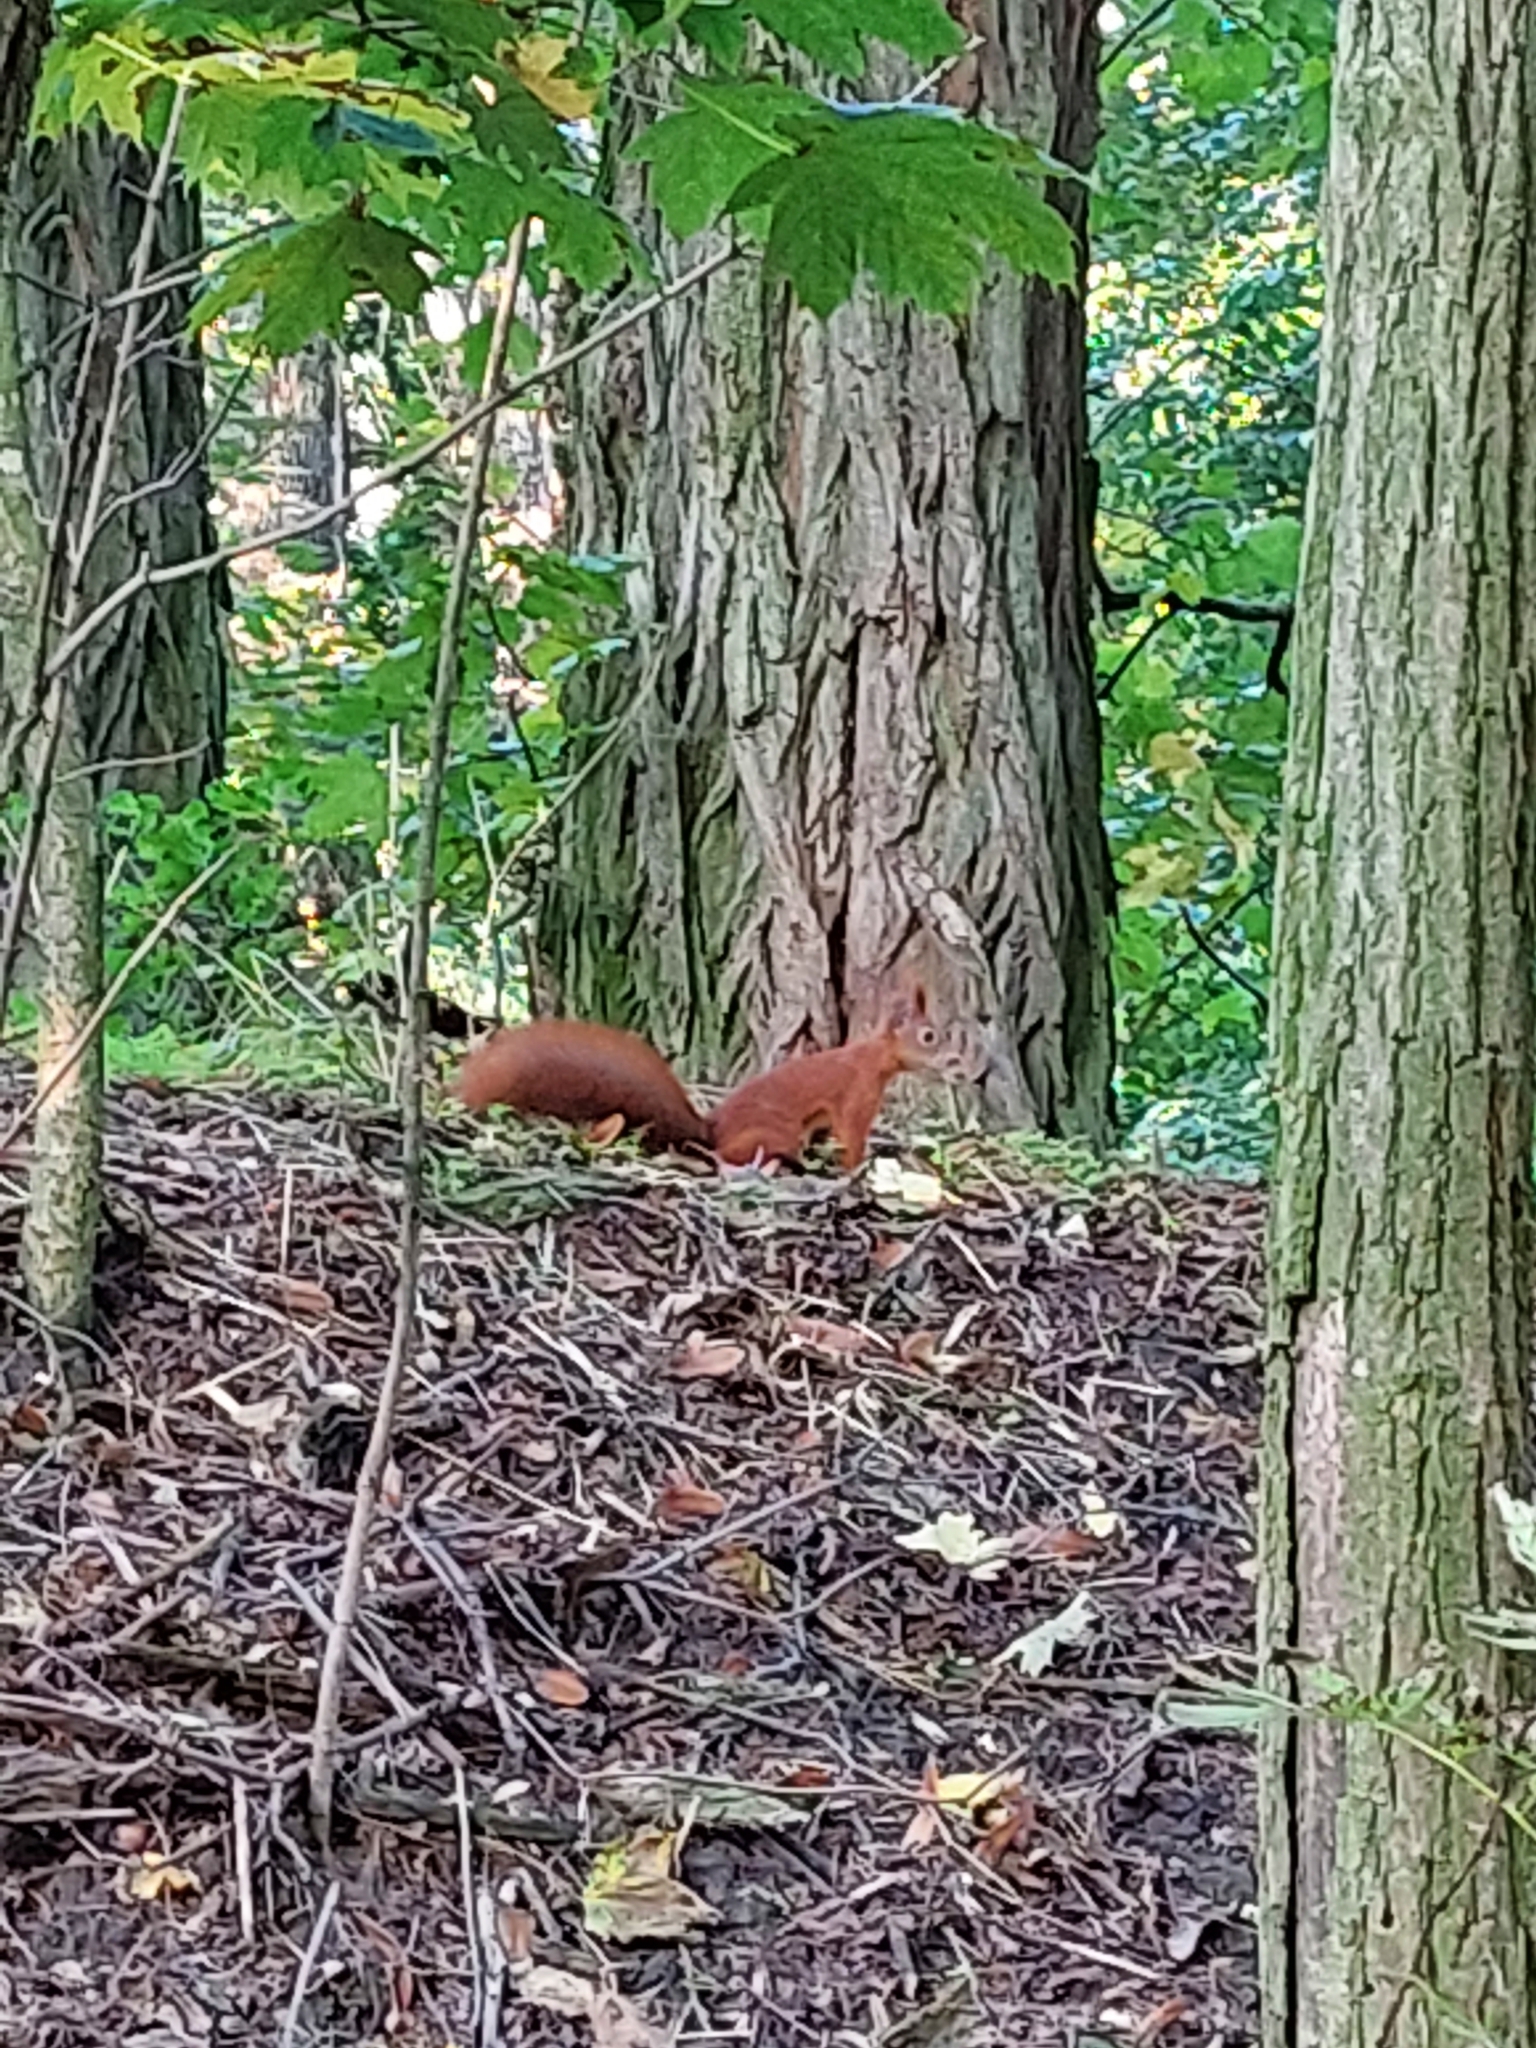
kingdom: Animalia
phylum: Chordata
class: Mammalia
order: Rodentia
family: Sciuridae
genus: Sciurus
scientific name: Sciurus vulgaris
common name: Eurasian red squirrel
